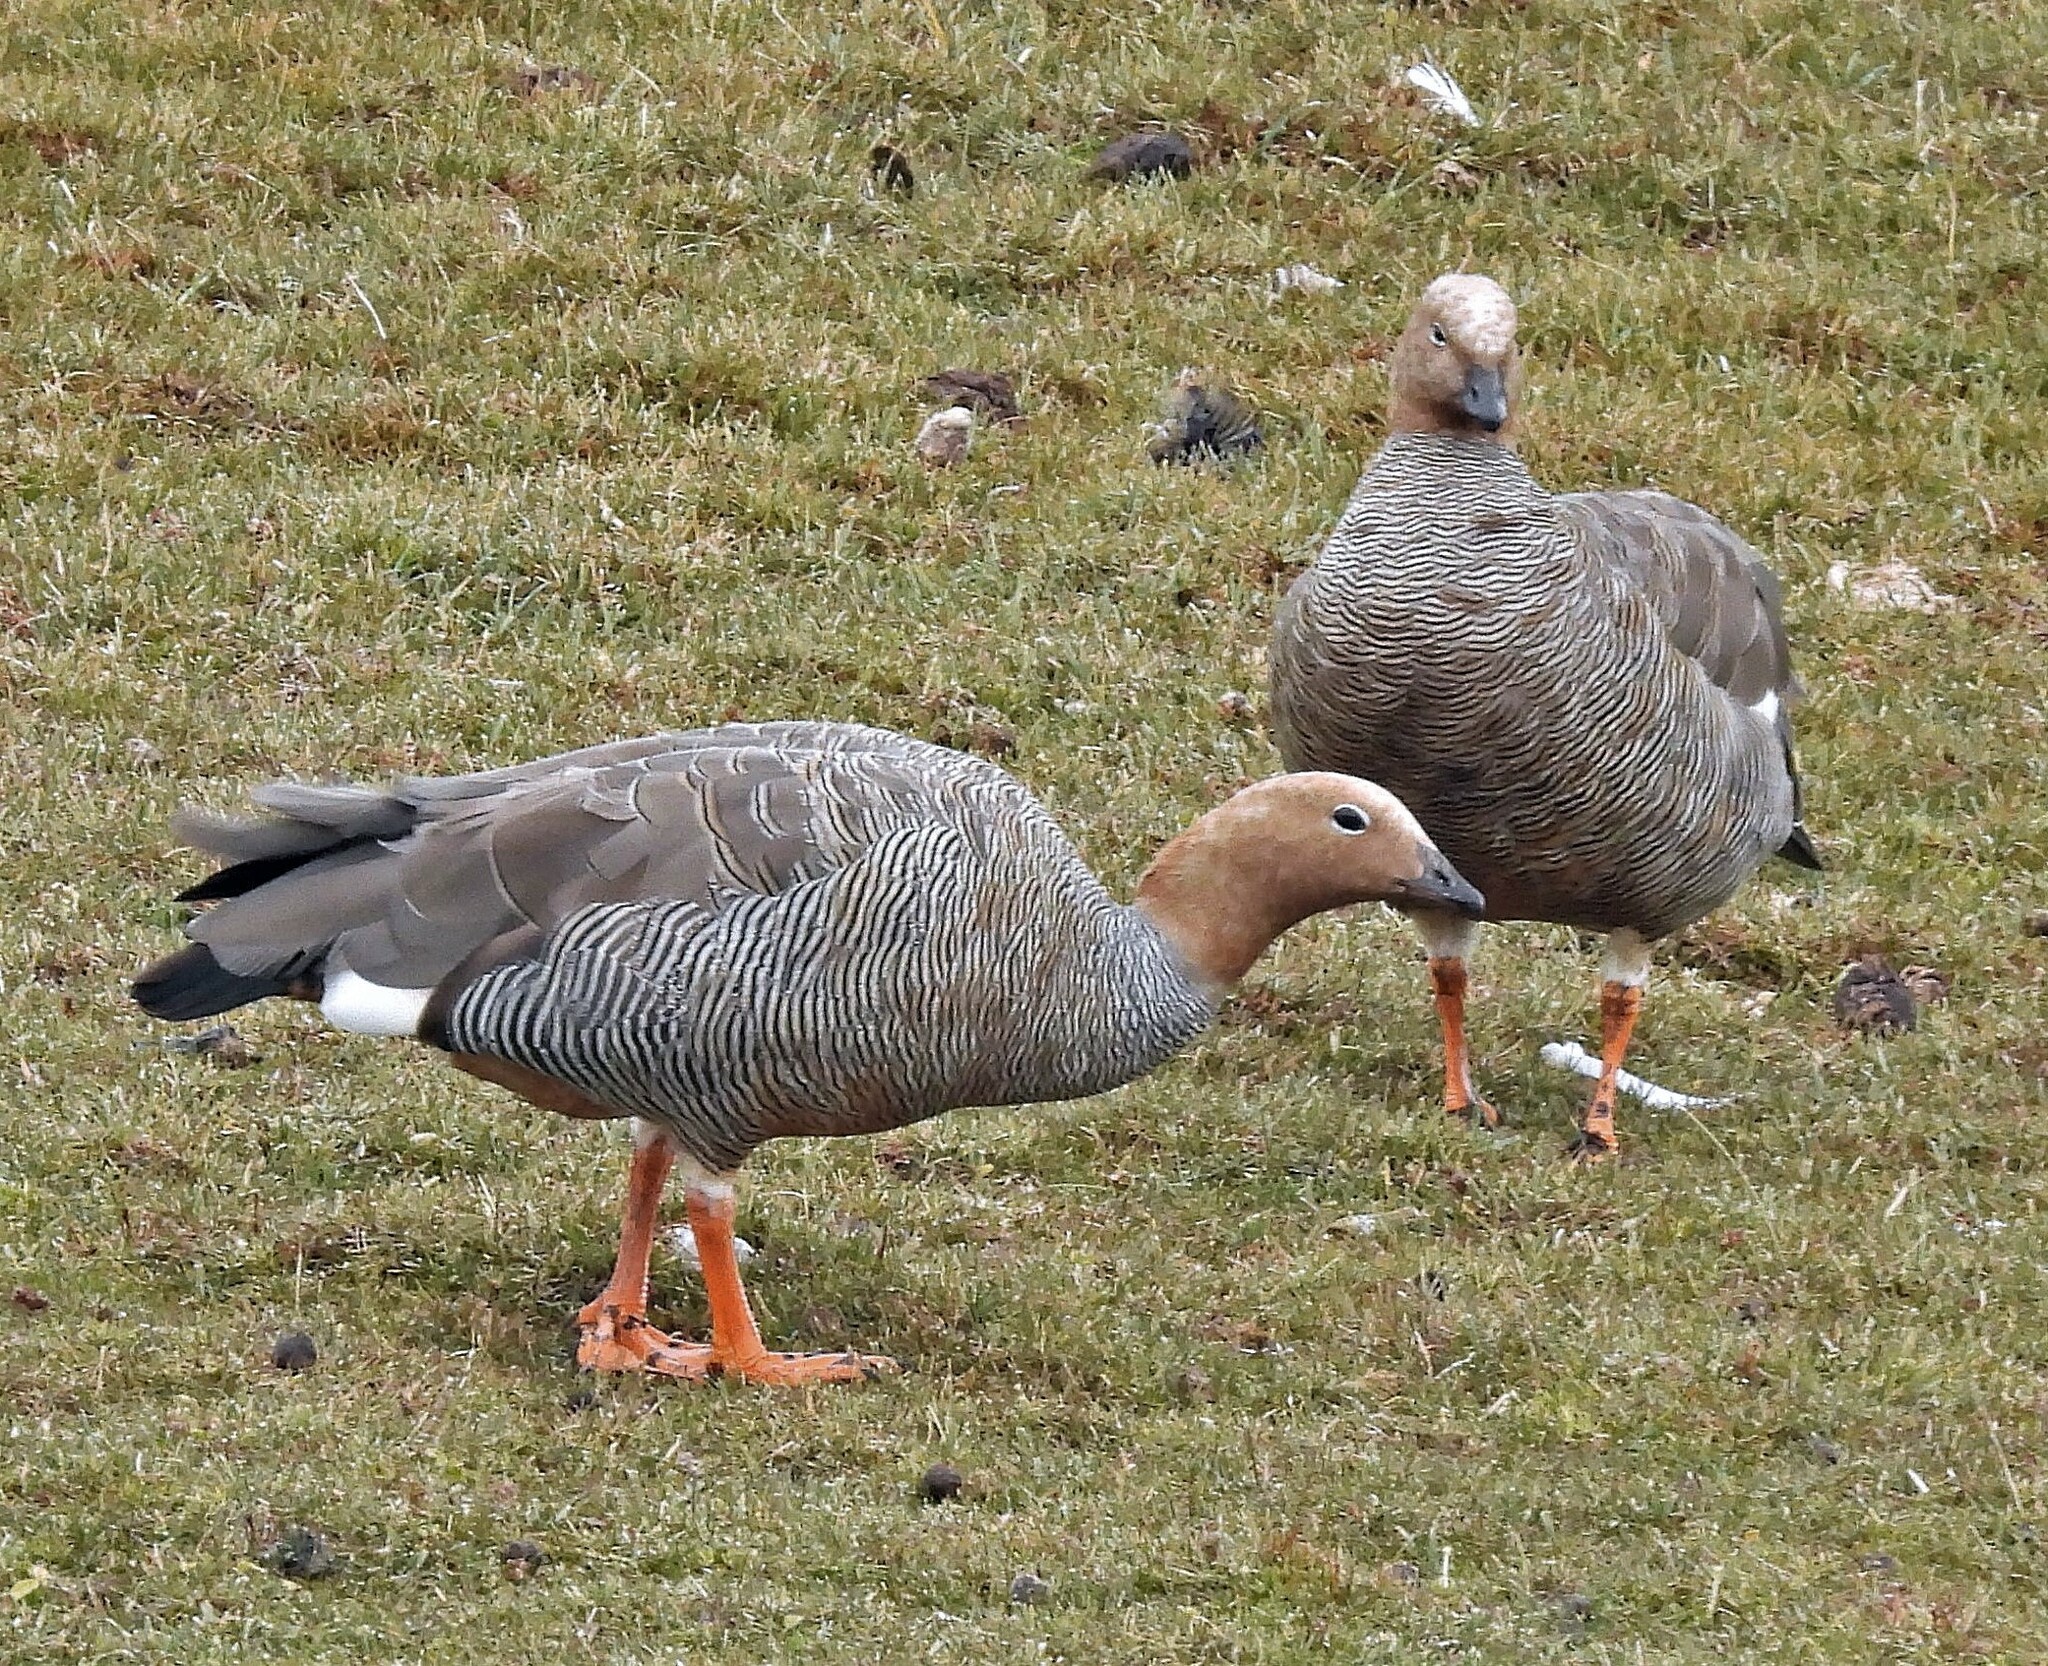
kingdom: Animalia
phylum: Chordata
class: Aves
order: Anseriformes
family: Anatidae
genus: Chloephaga
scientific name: Chloephaga rubidiceps
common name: Ruddy-headed goose
